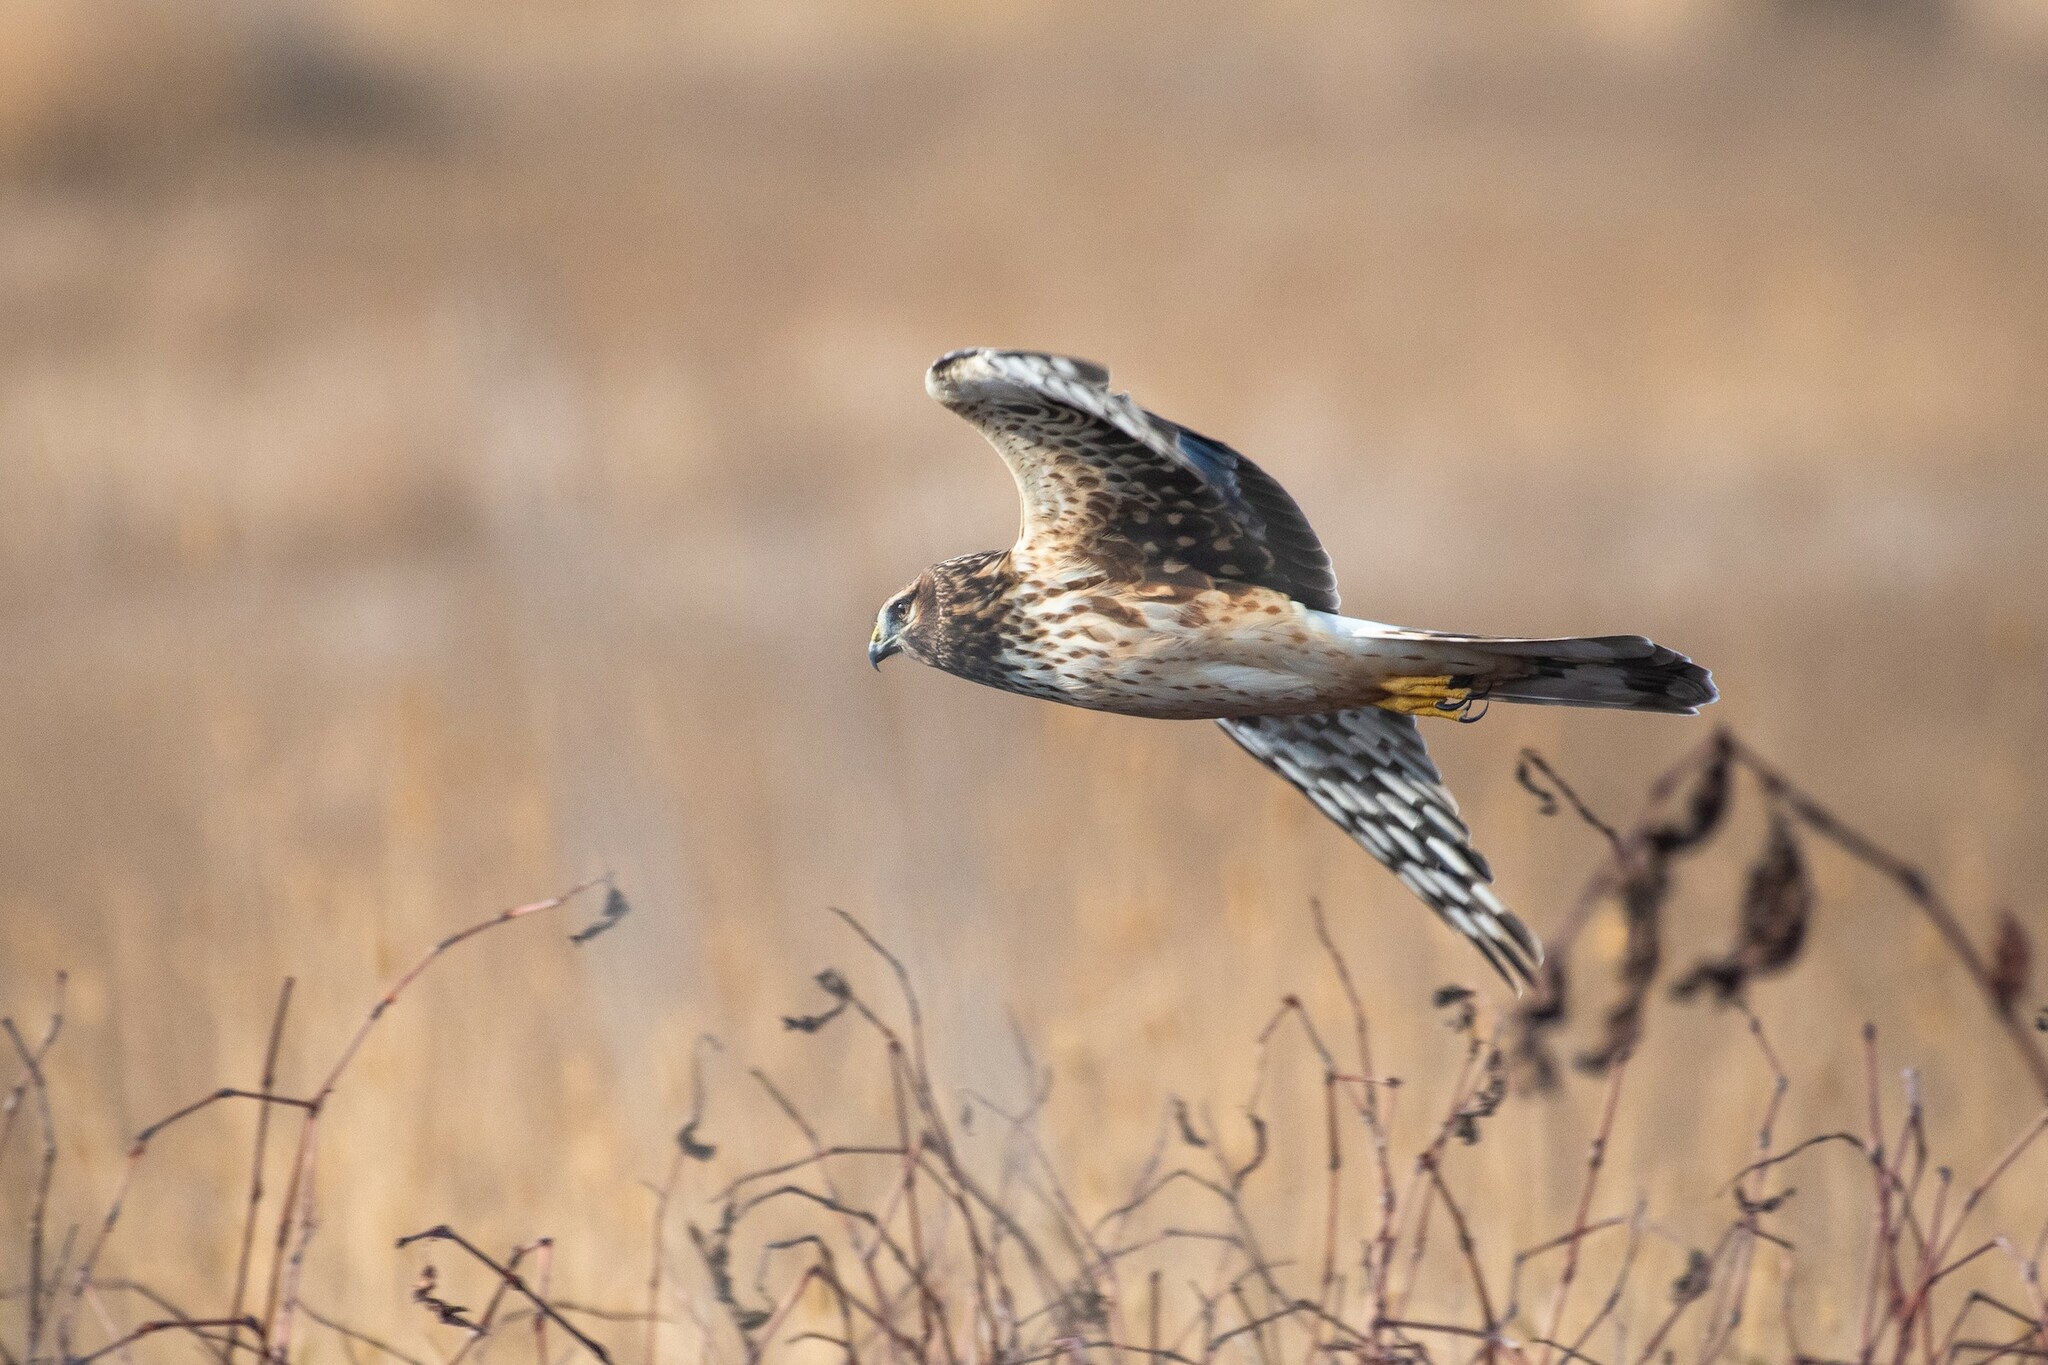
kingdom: Animalia
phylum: Chordata
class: Aves
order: Accipitriformes
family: Accipitridae
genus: Circus
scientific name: Circus cyaneus
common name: Hen harrier
